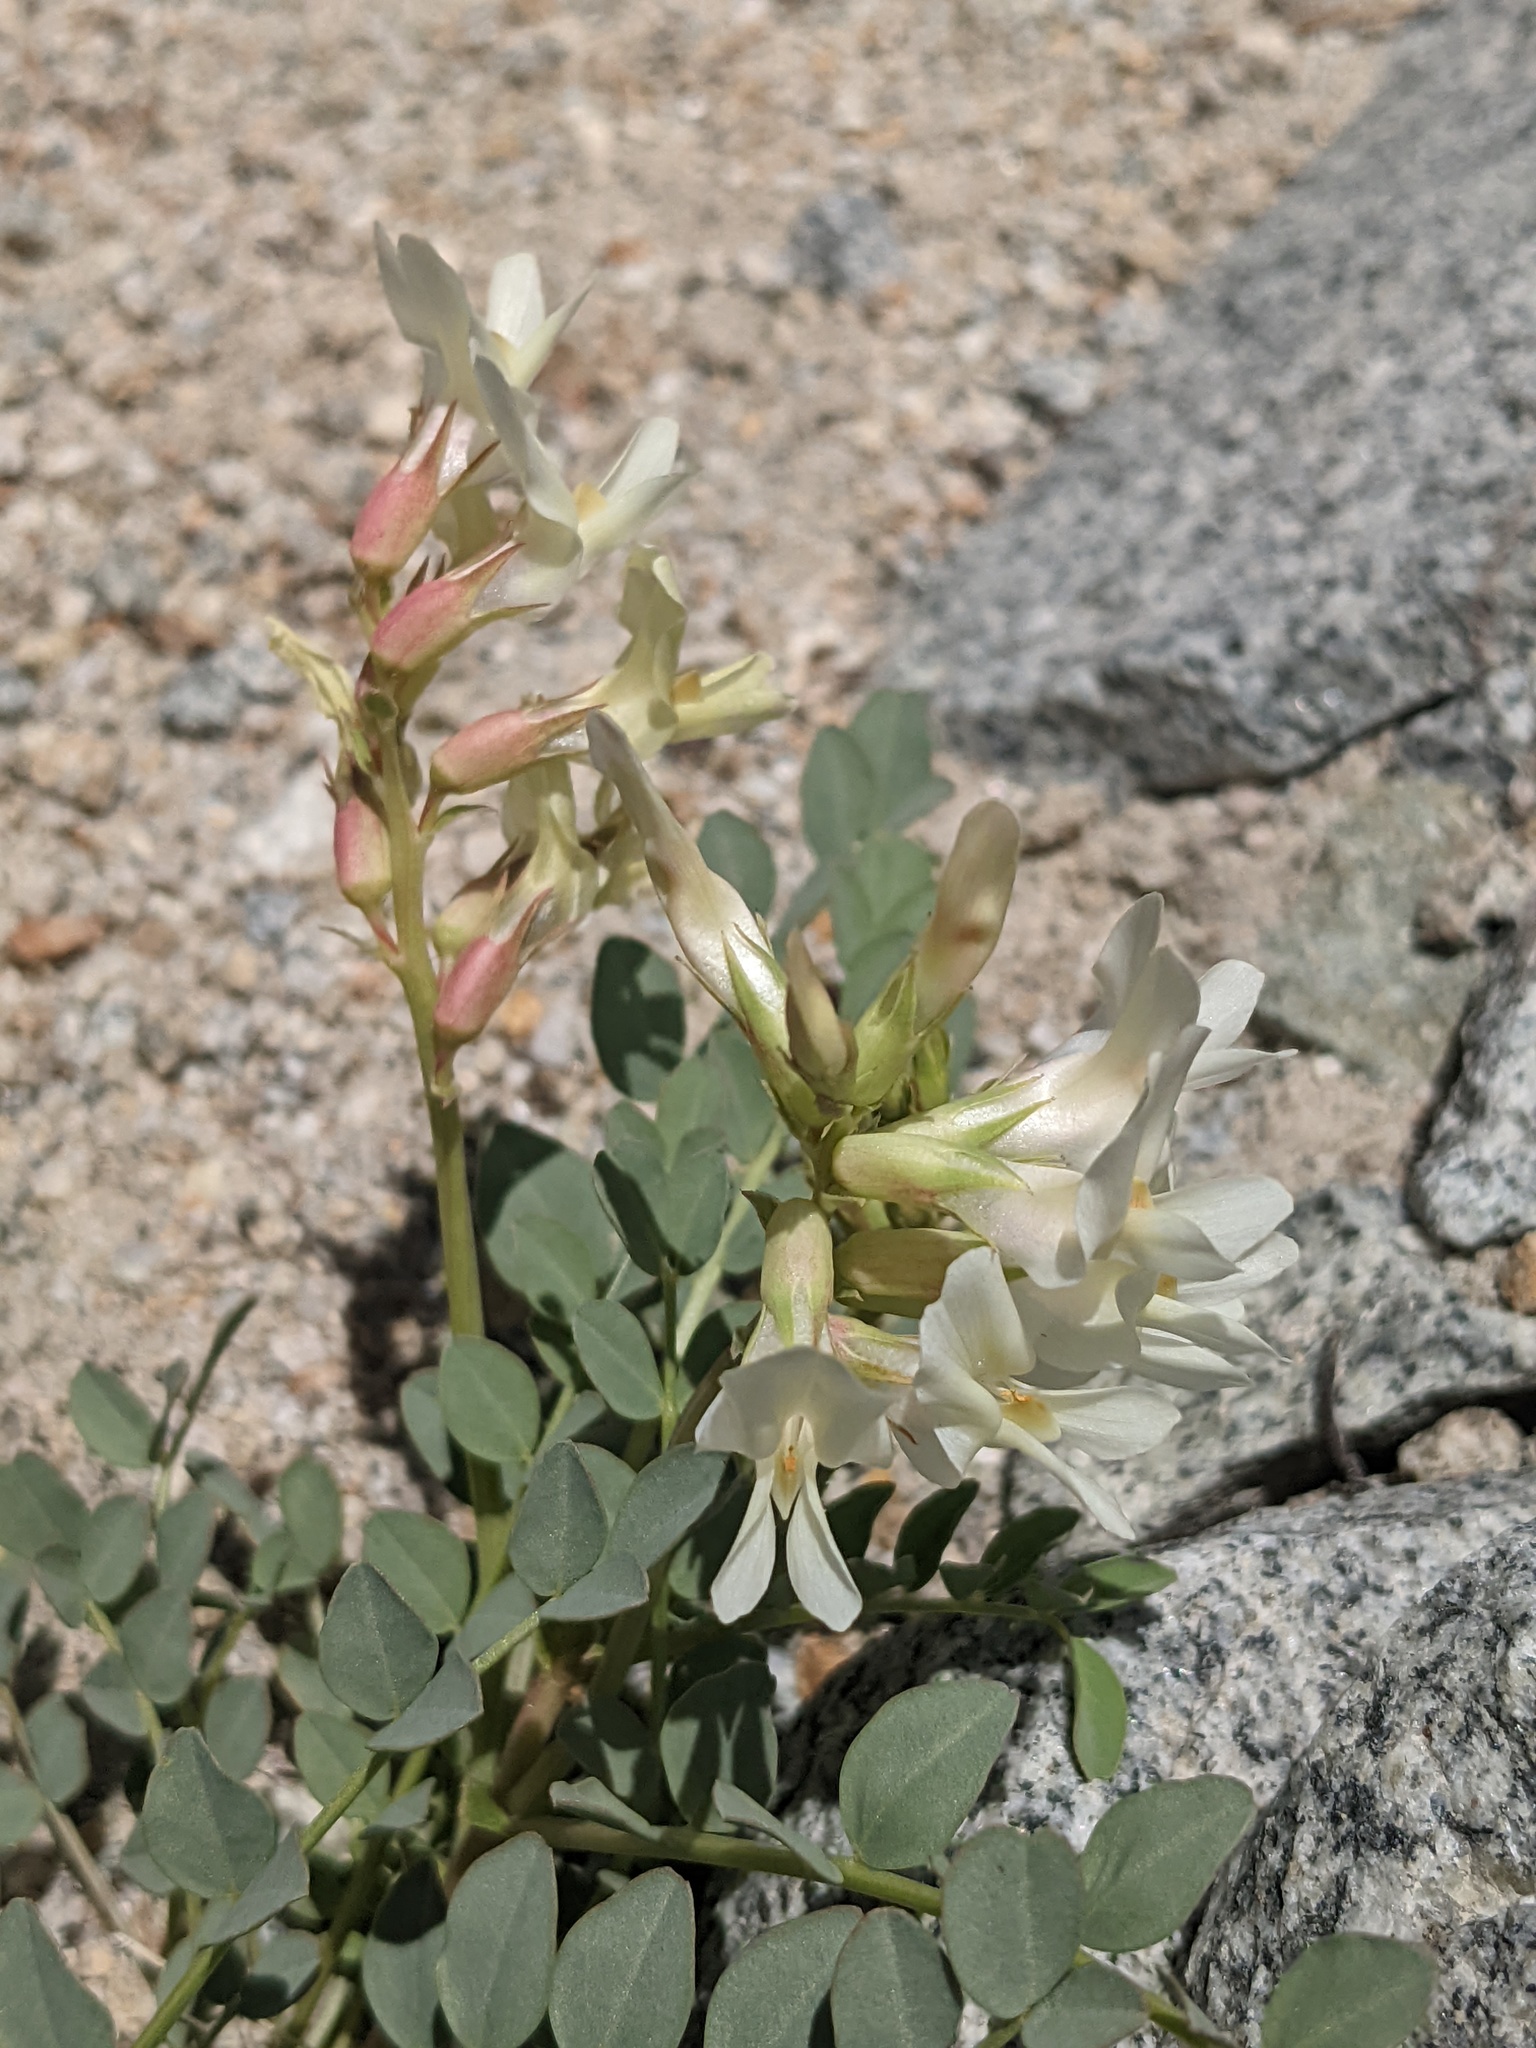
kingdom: Plantae
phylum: Tracheophyta
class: Magnoliopsida
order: Fabales
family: Fabaceae
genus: Astragalus
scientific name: Astragalus oophorus
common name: Egg milkvetch
